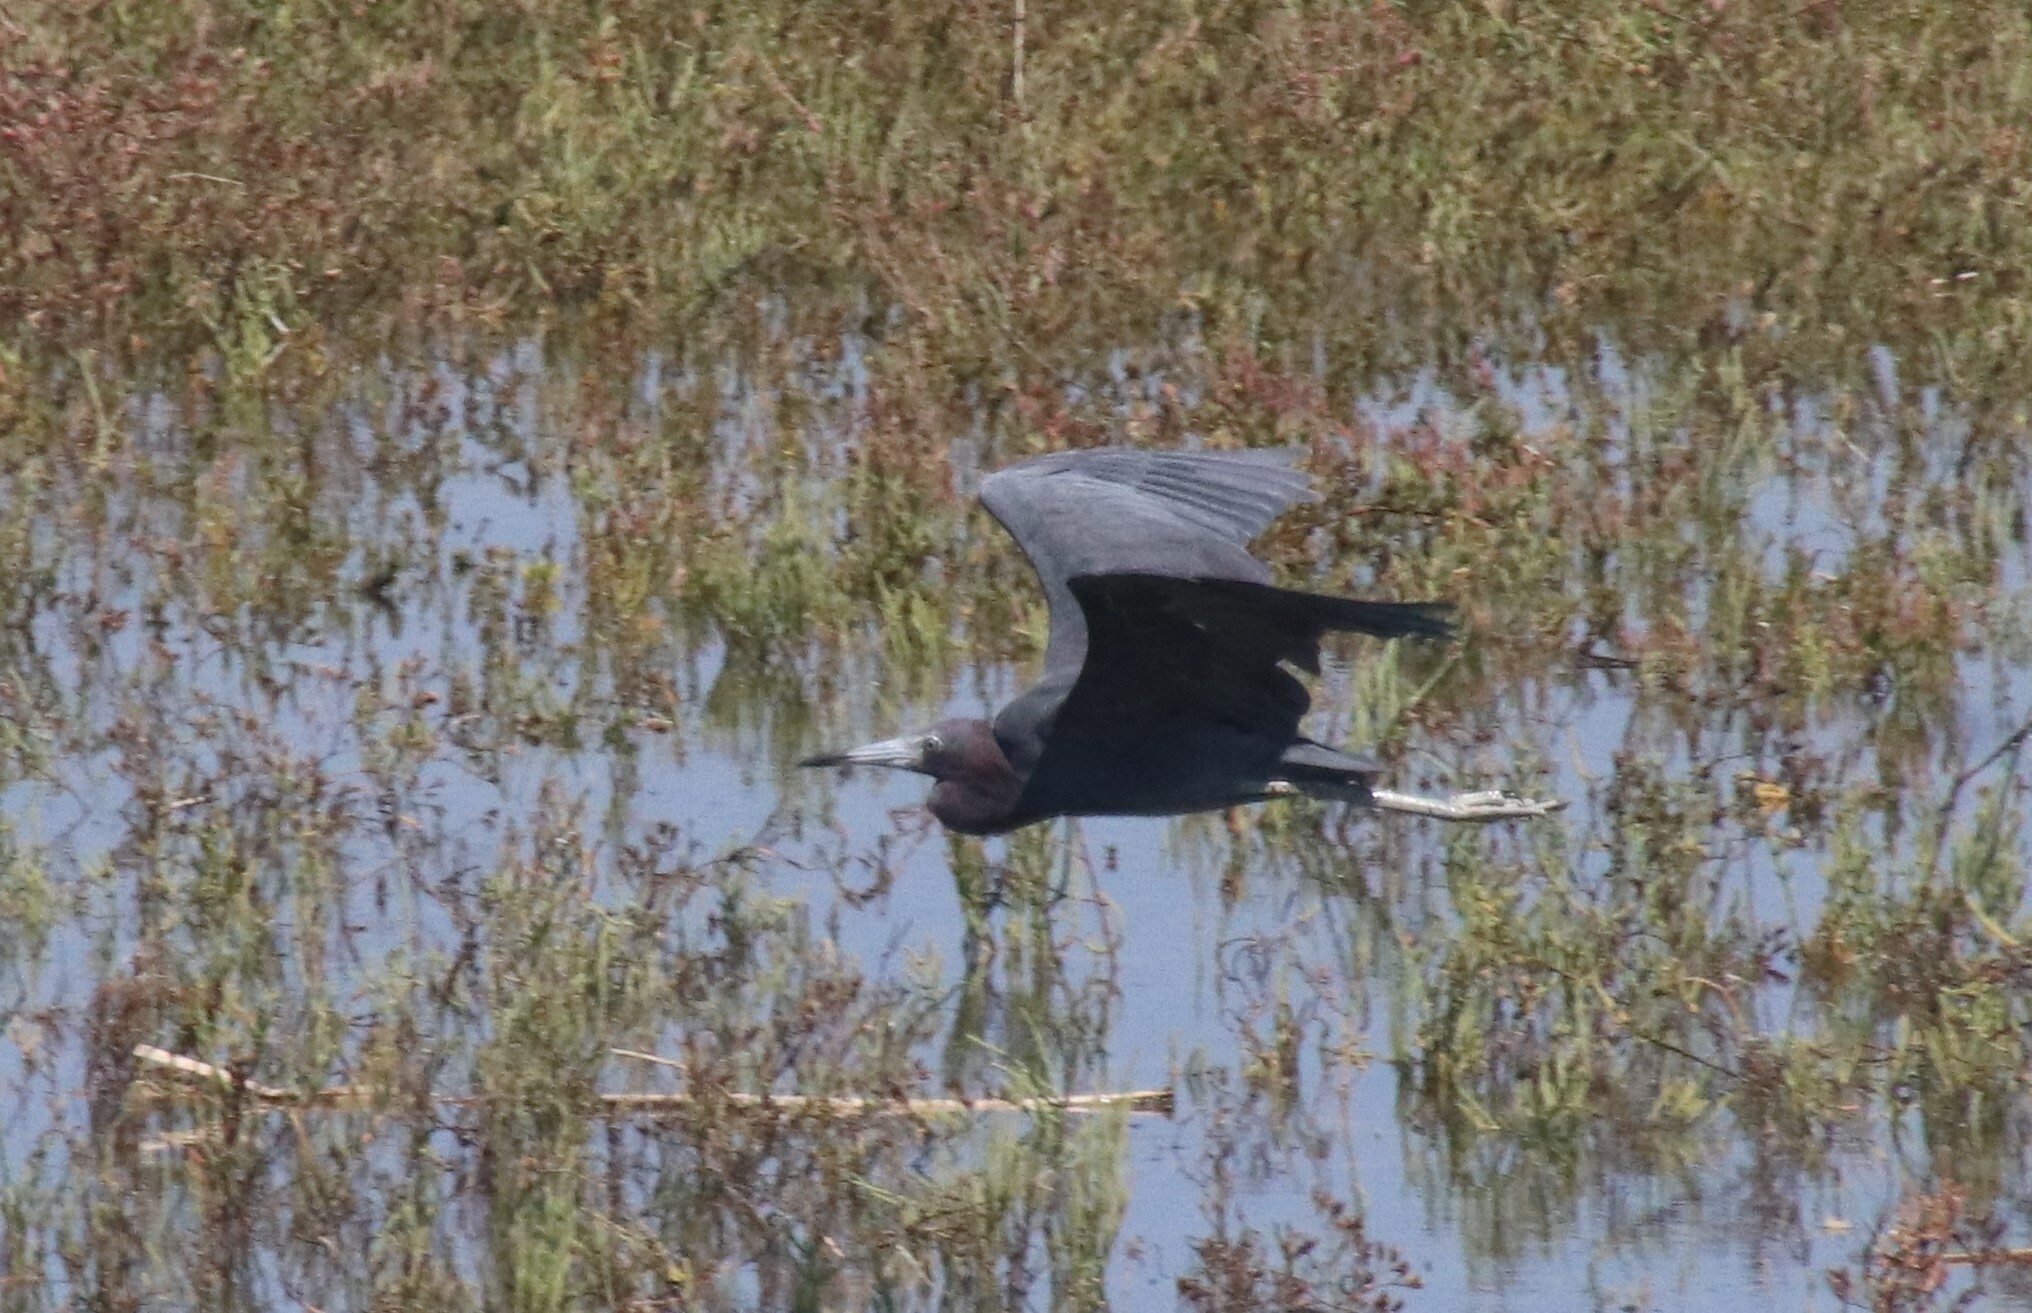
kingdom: Animalia
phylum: Chordata
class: Aves
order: Pelecaniformes
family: Ardeidae
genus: Egretta
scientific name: Egretta caerulea
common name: Little blue heron
